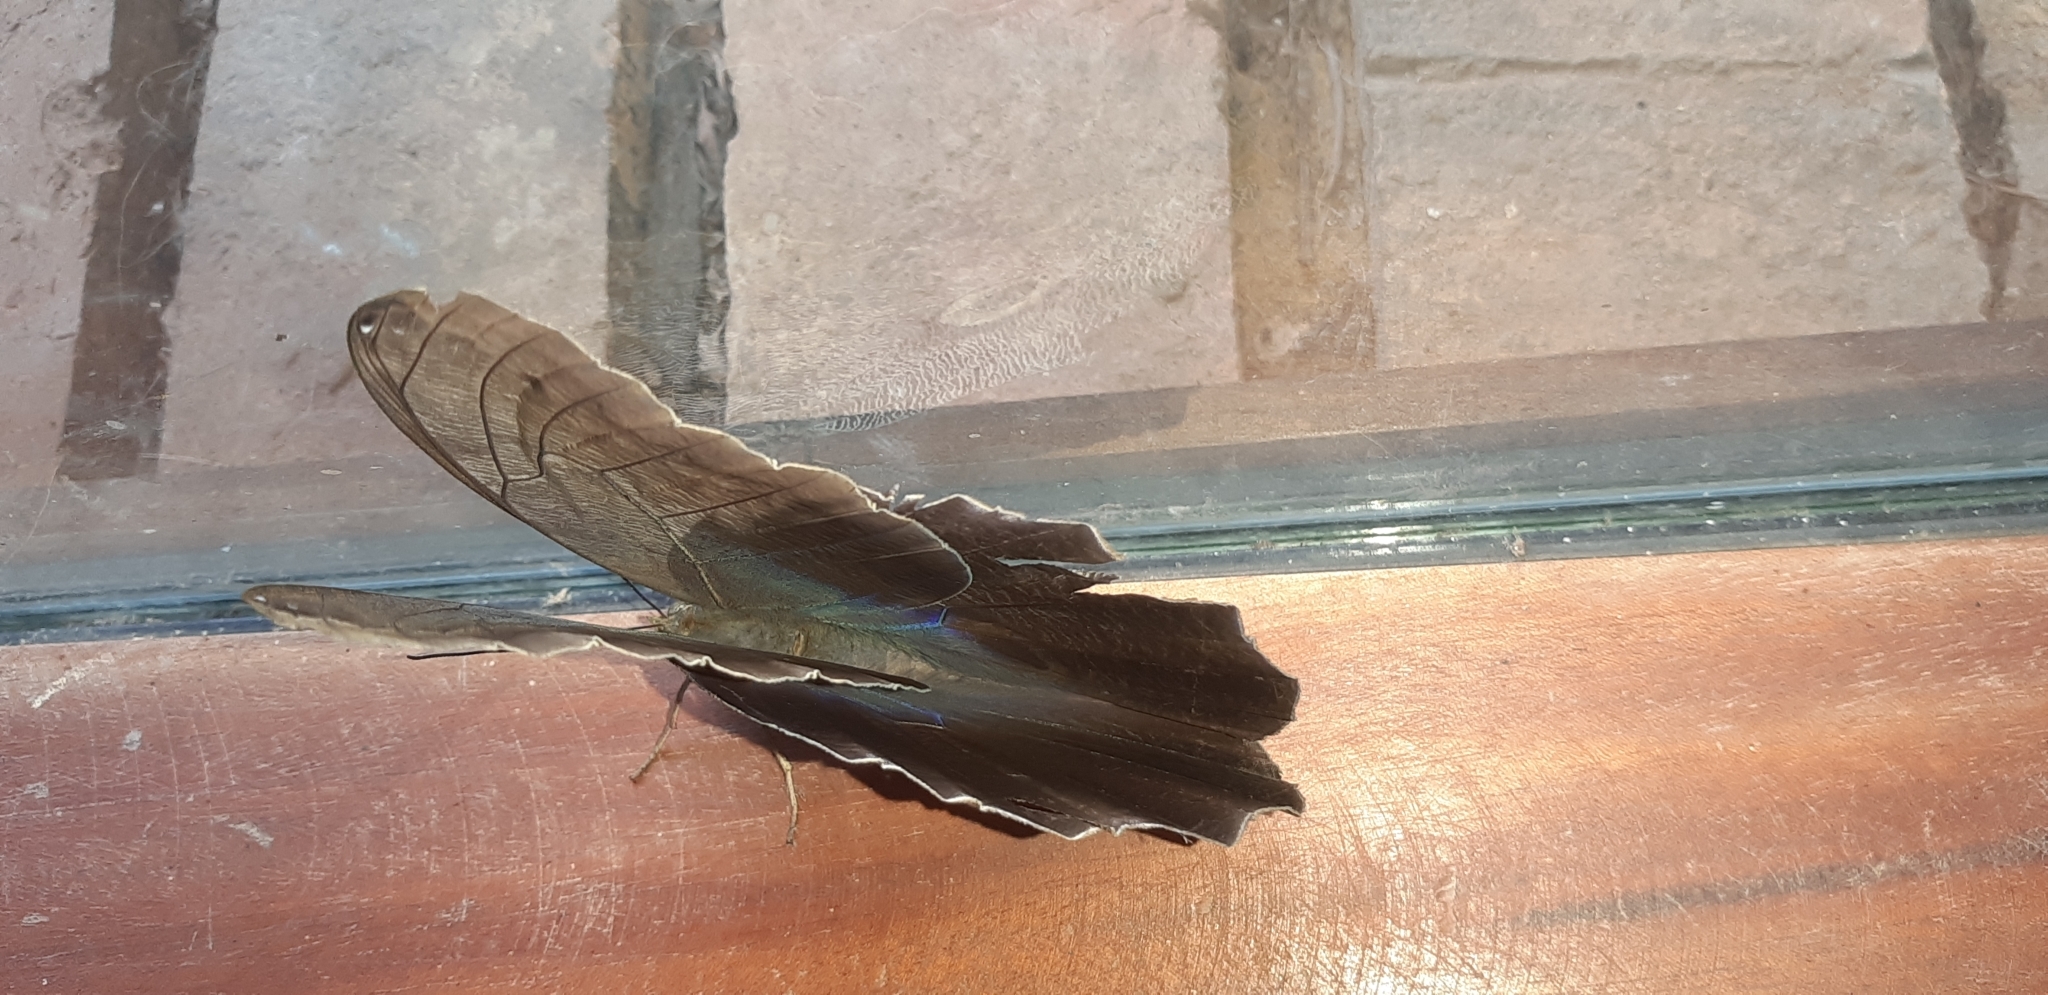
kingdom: Animalia
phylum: Arthropoda
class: Insecta
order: Lepidoptera
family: Nymphalidae
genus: Caligo
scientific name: Caligo eurilochus
